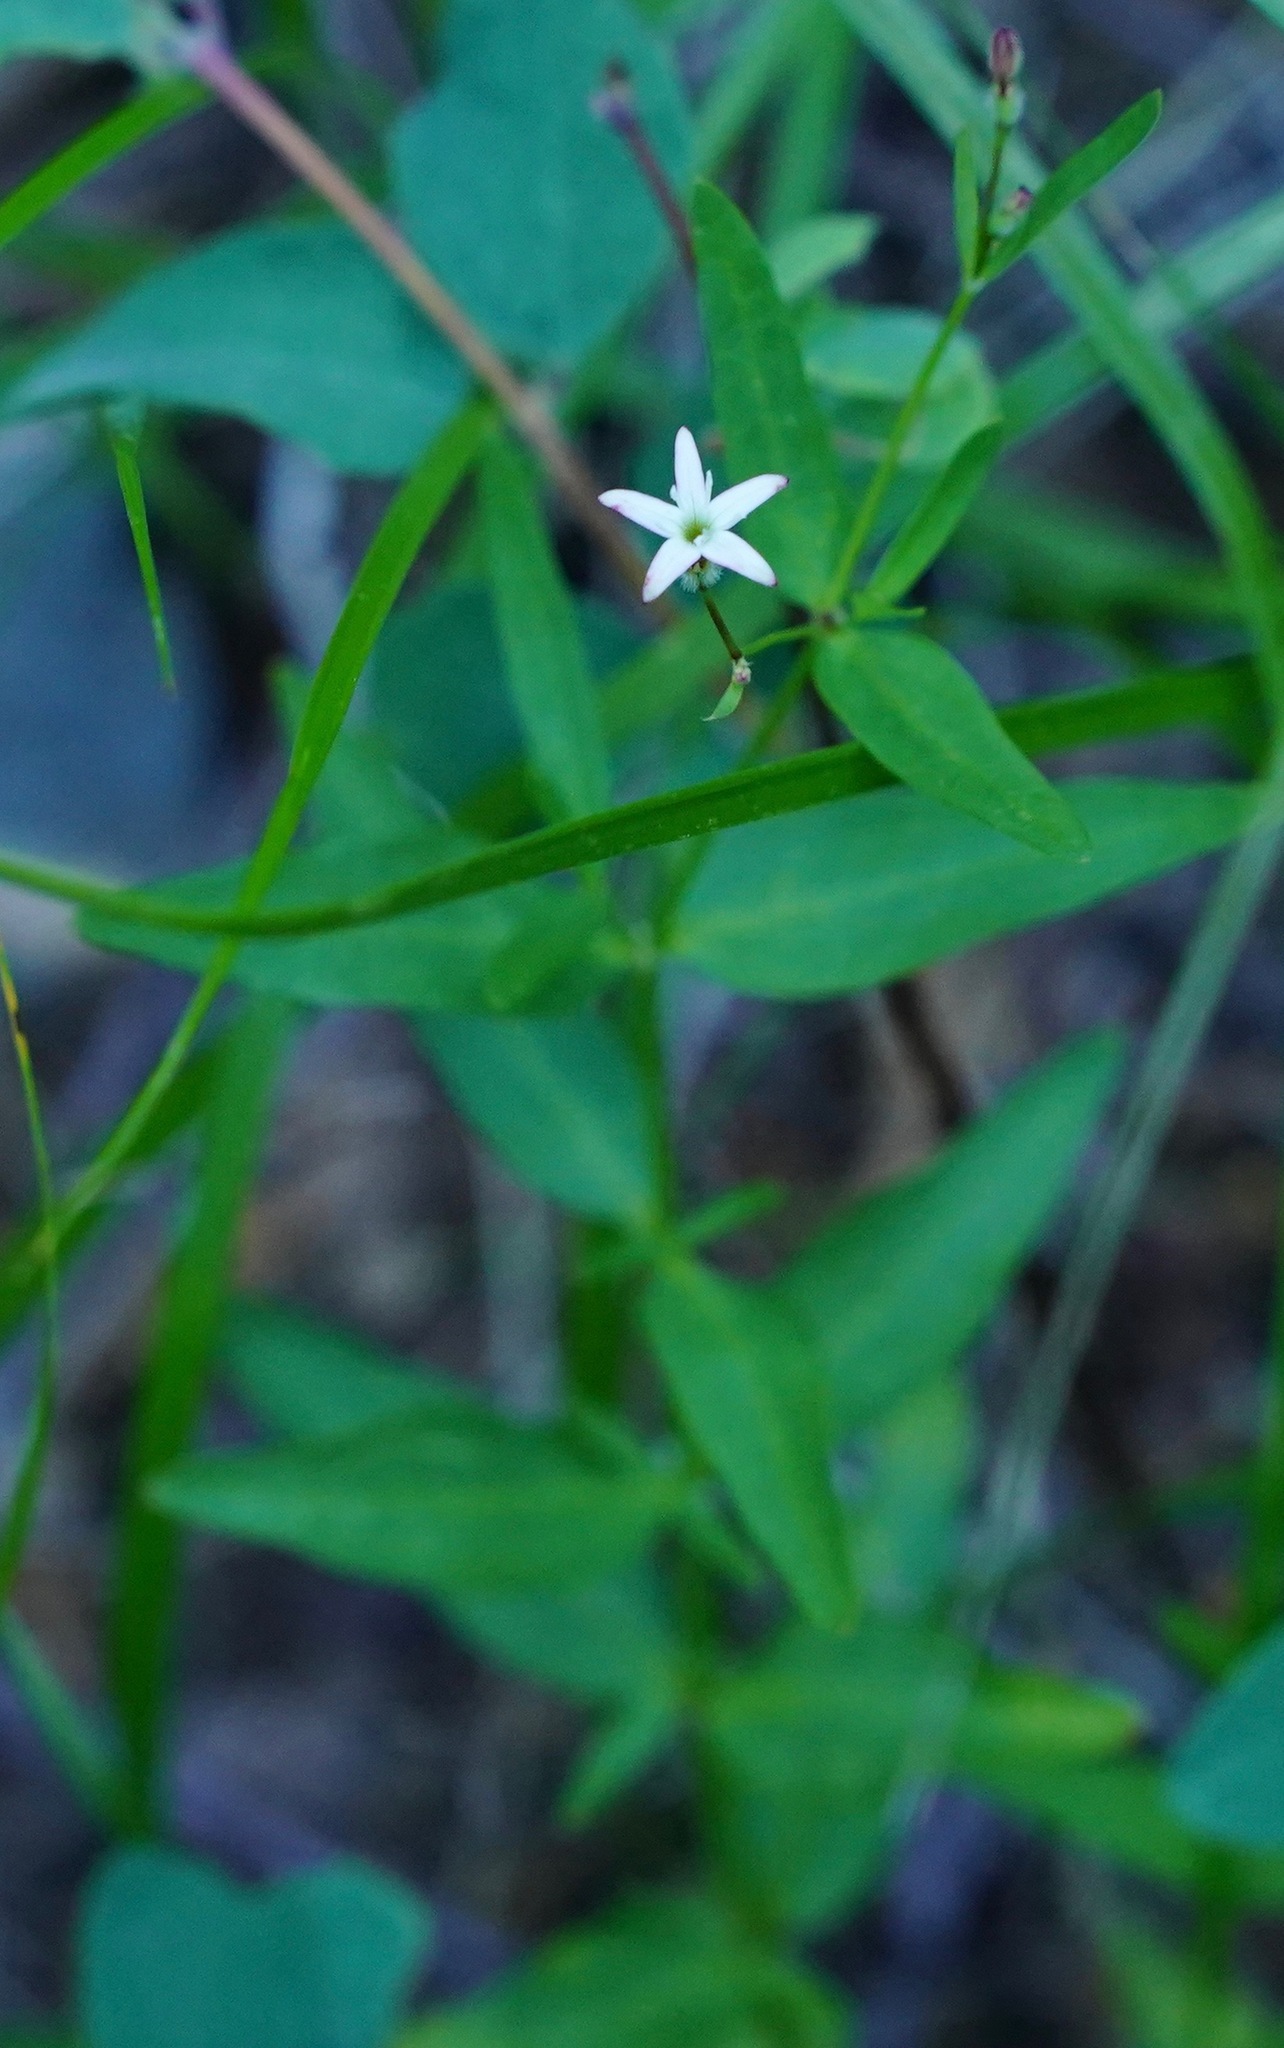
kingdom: Plantae
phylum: Tracheophyta
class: Magnoliopsida
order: Gentianales
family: Rubiaceae
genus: Kelloggia
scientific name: Kelloggia galioides
